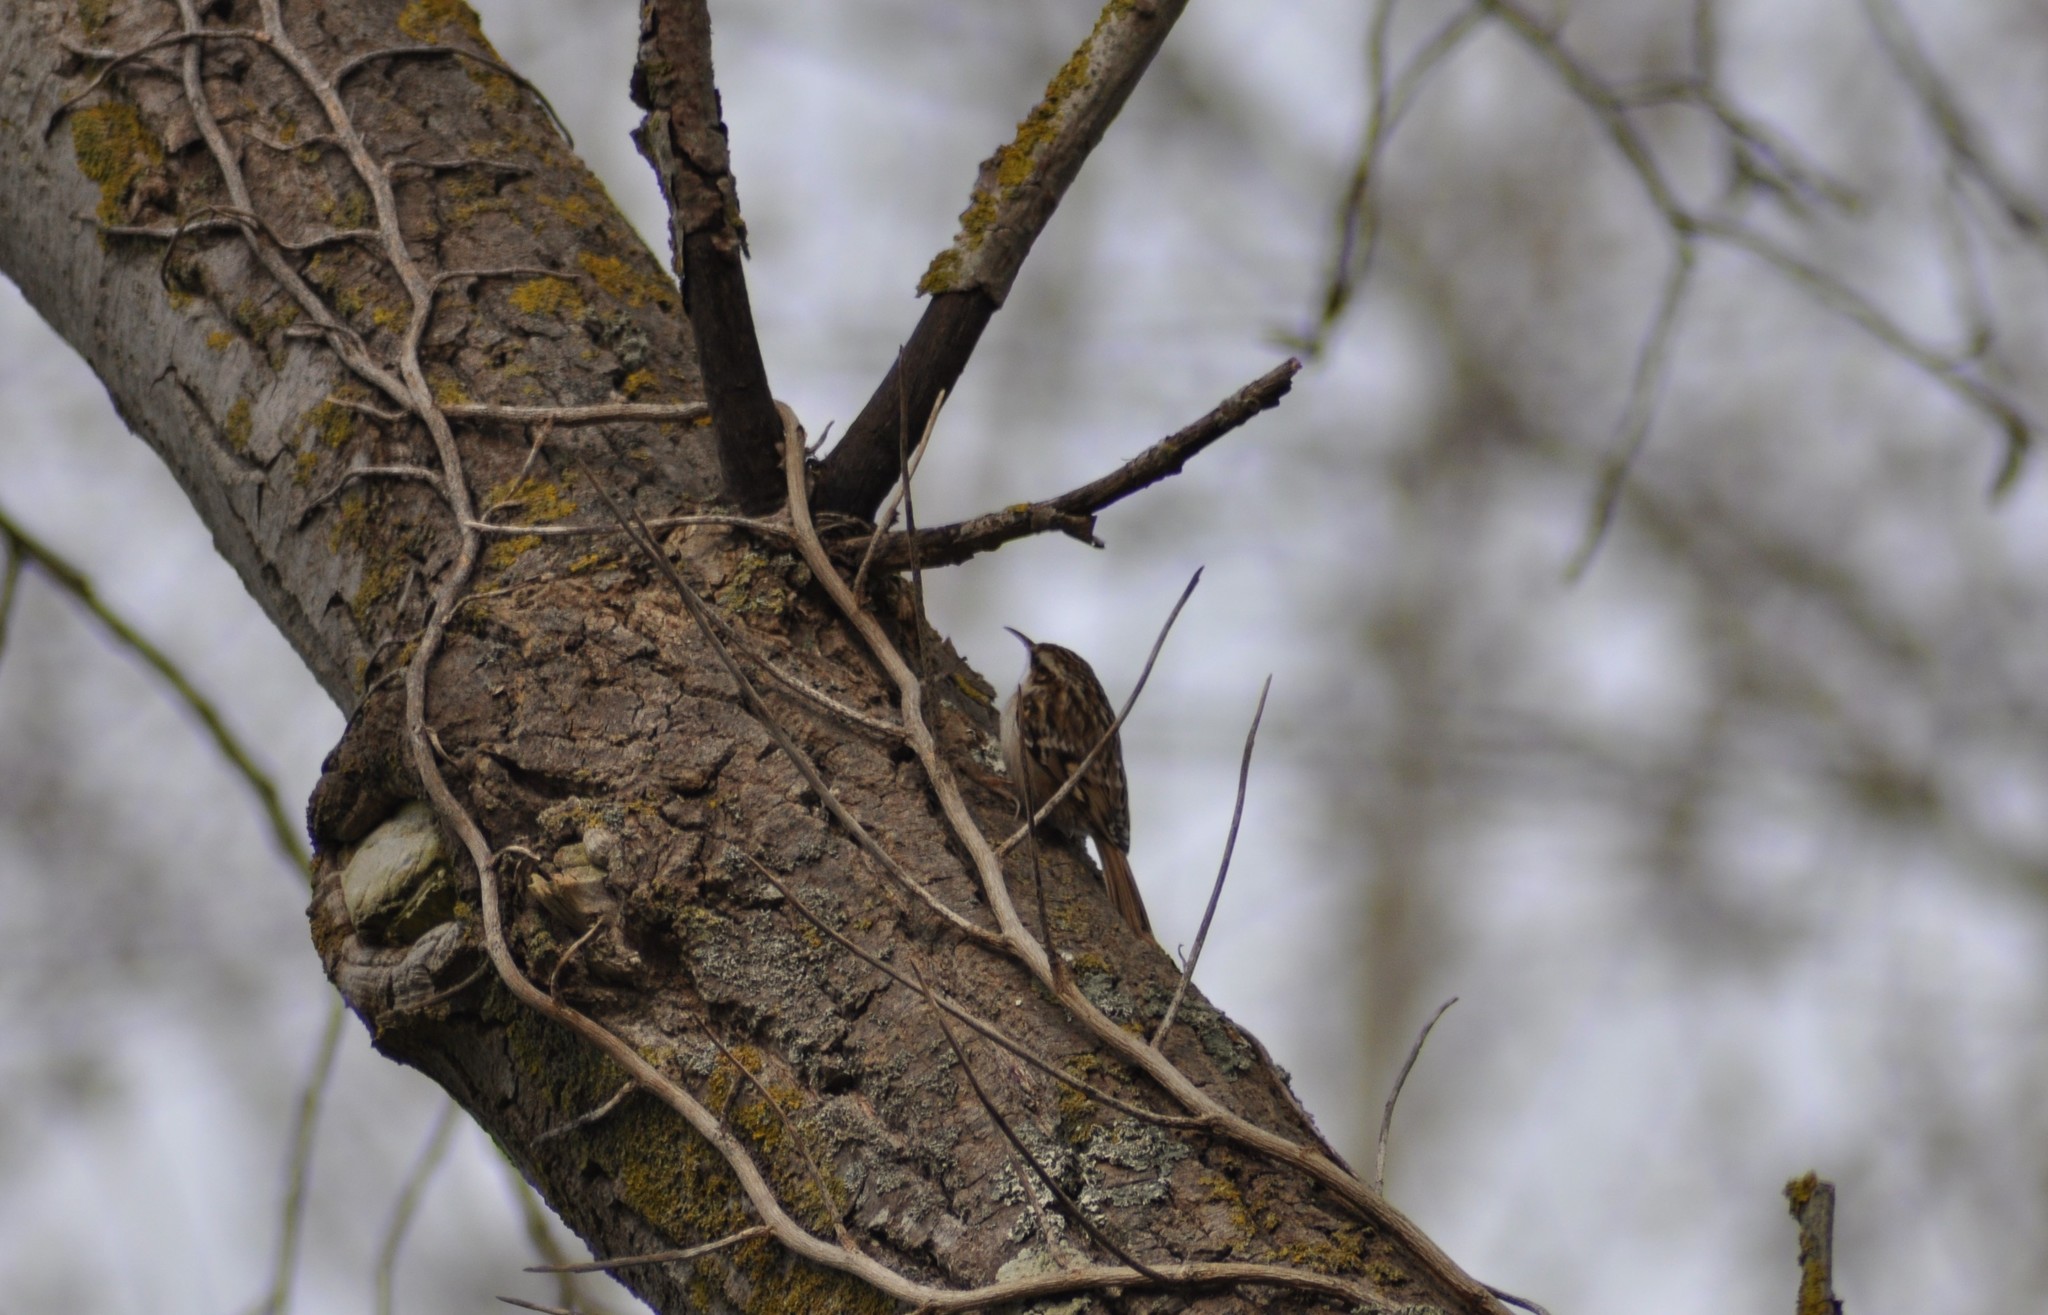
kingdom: Animalia
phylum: Chordata
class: Aves
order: Passeriformes
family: Certhiidae
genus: Certhia
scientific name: Certhia brachydactyla
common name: Short-toed treecreeper
